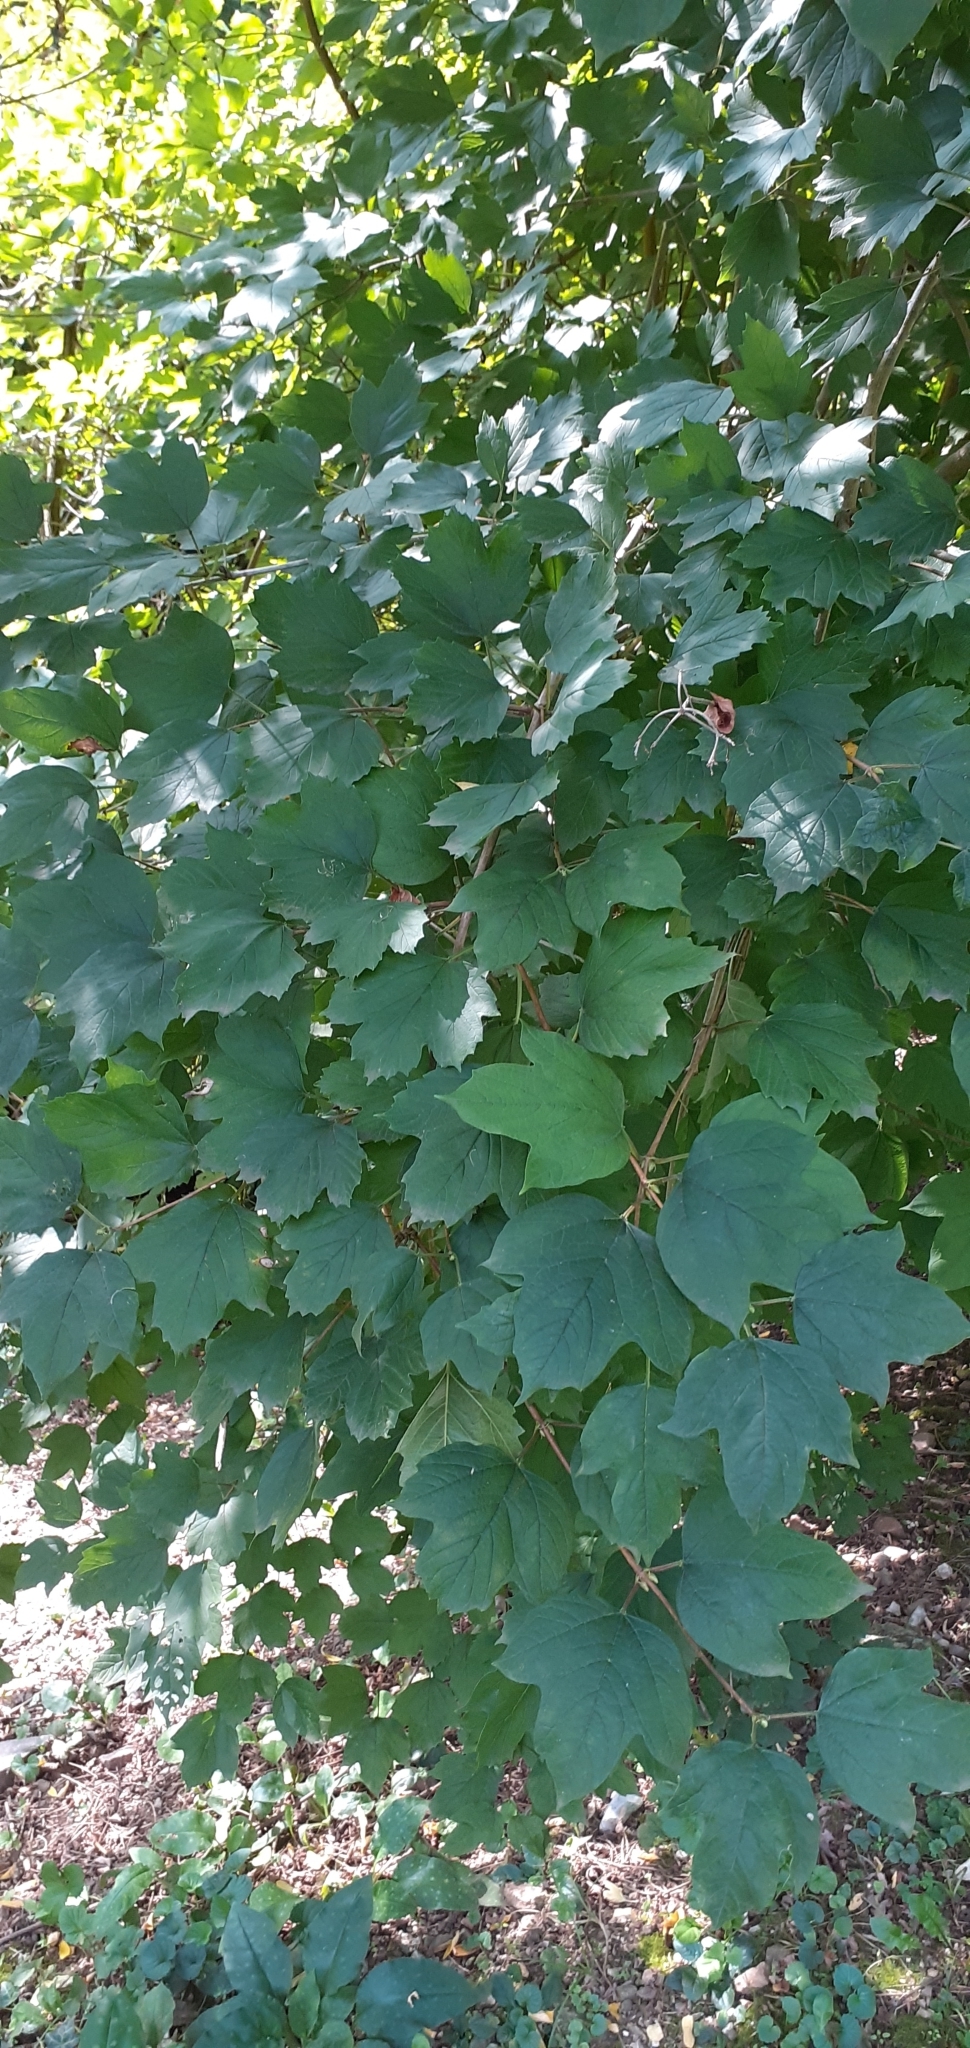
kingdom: Plantae
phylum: Tracheophyta
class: Magnoliopsida
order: Dipsacales
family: Viburnaceae
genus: Viburnum
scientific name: Viburnum opulus
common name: Guelder-rose
